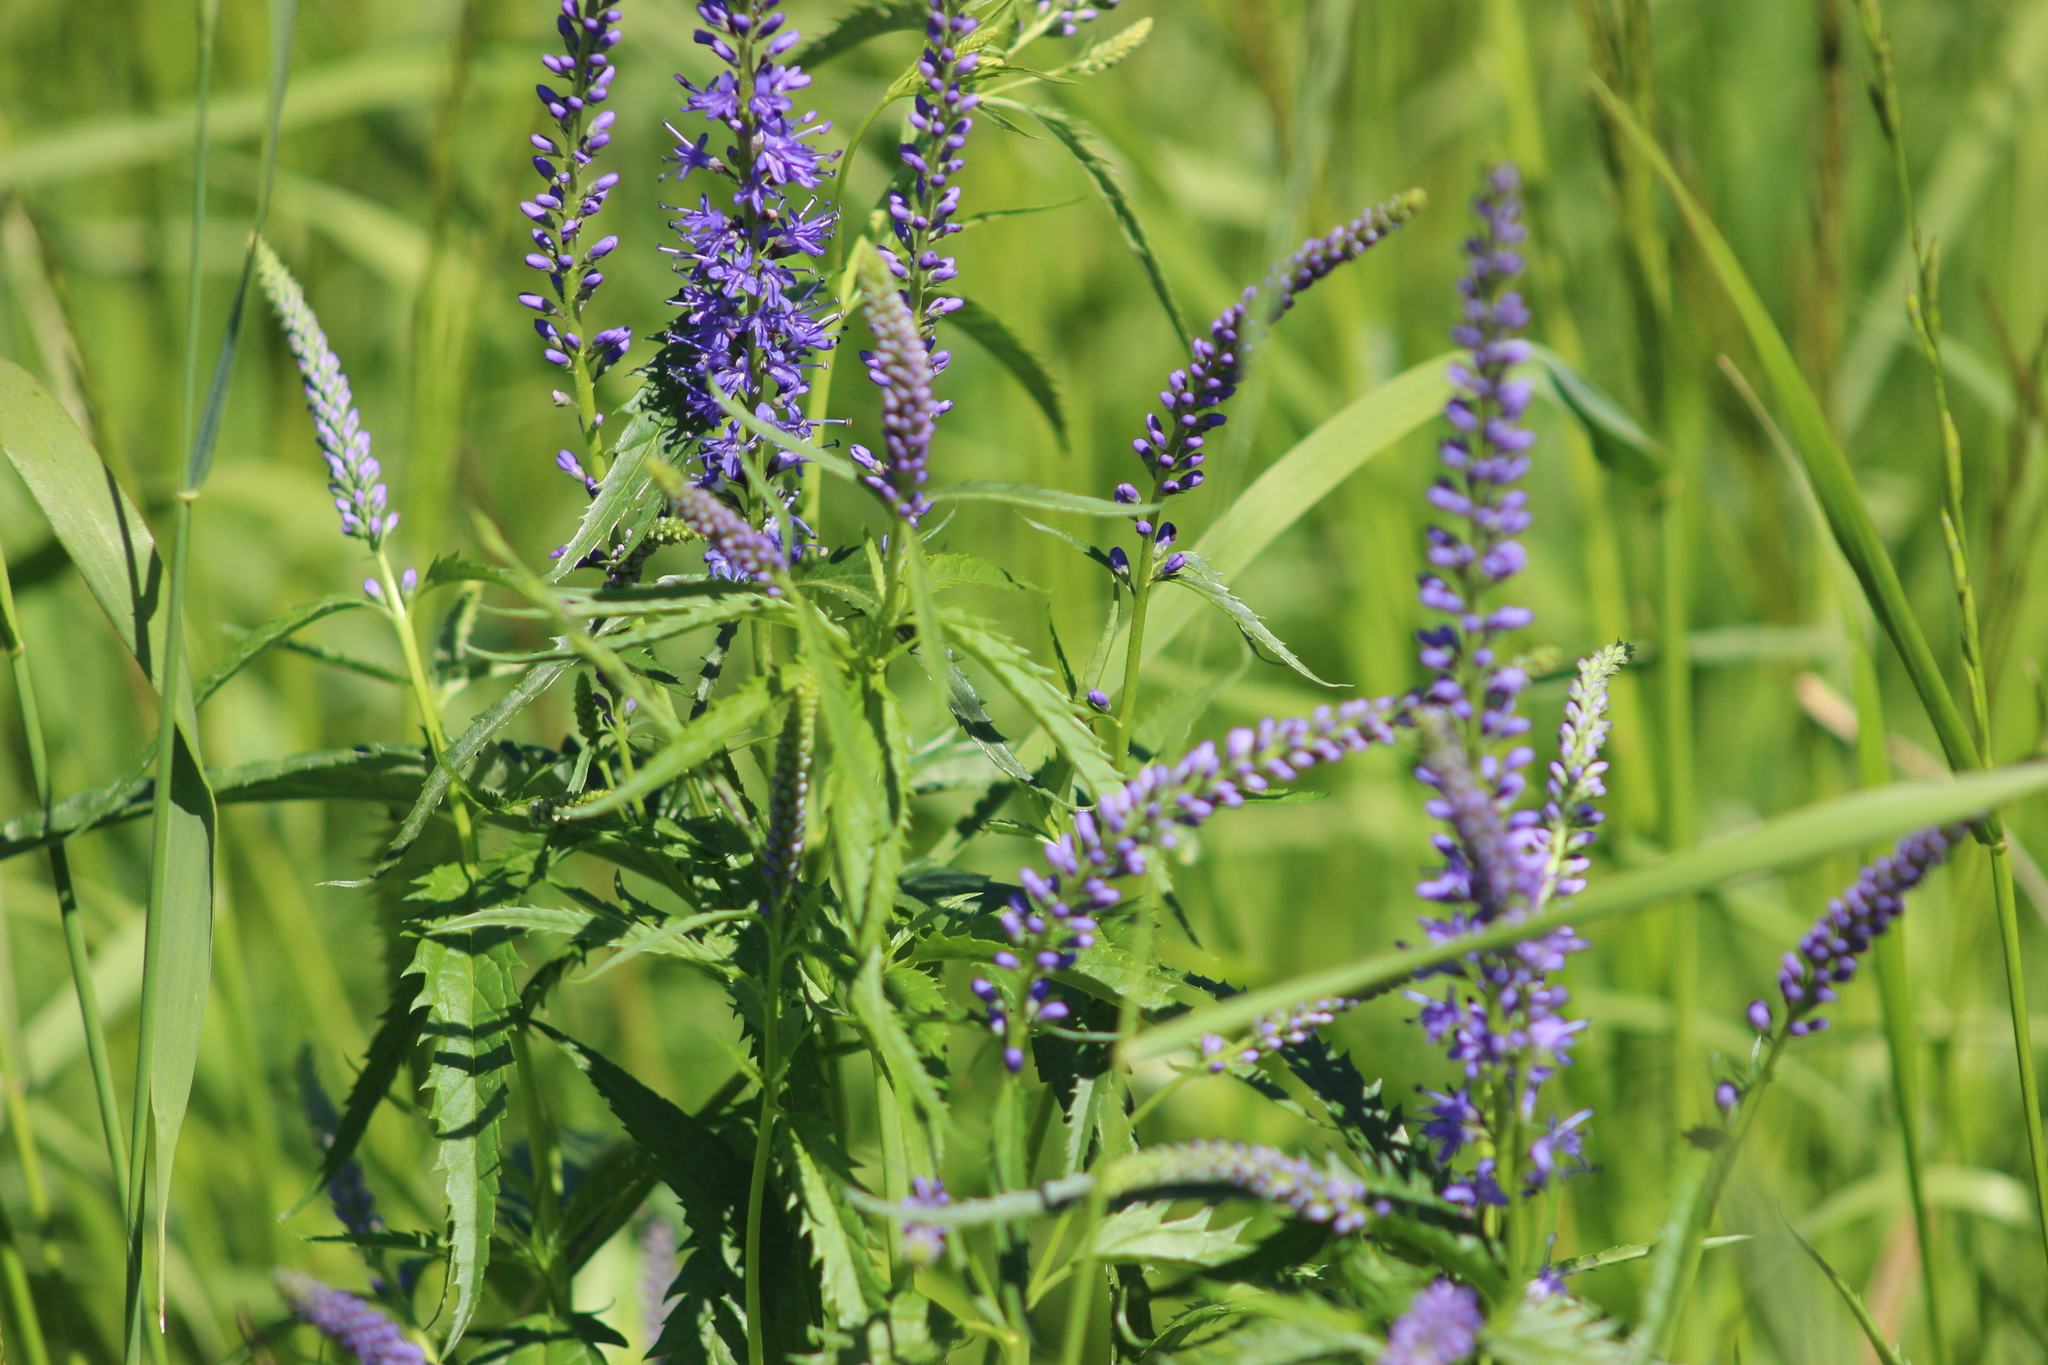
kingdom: Plantae
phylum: Tracheophyta
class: Magnoliopsida
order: Lamiales
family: Plantaginaceae
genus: Veronica
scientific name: Veronica longifolia
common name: Garden speedwell
